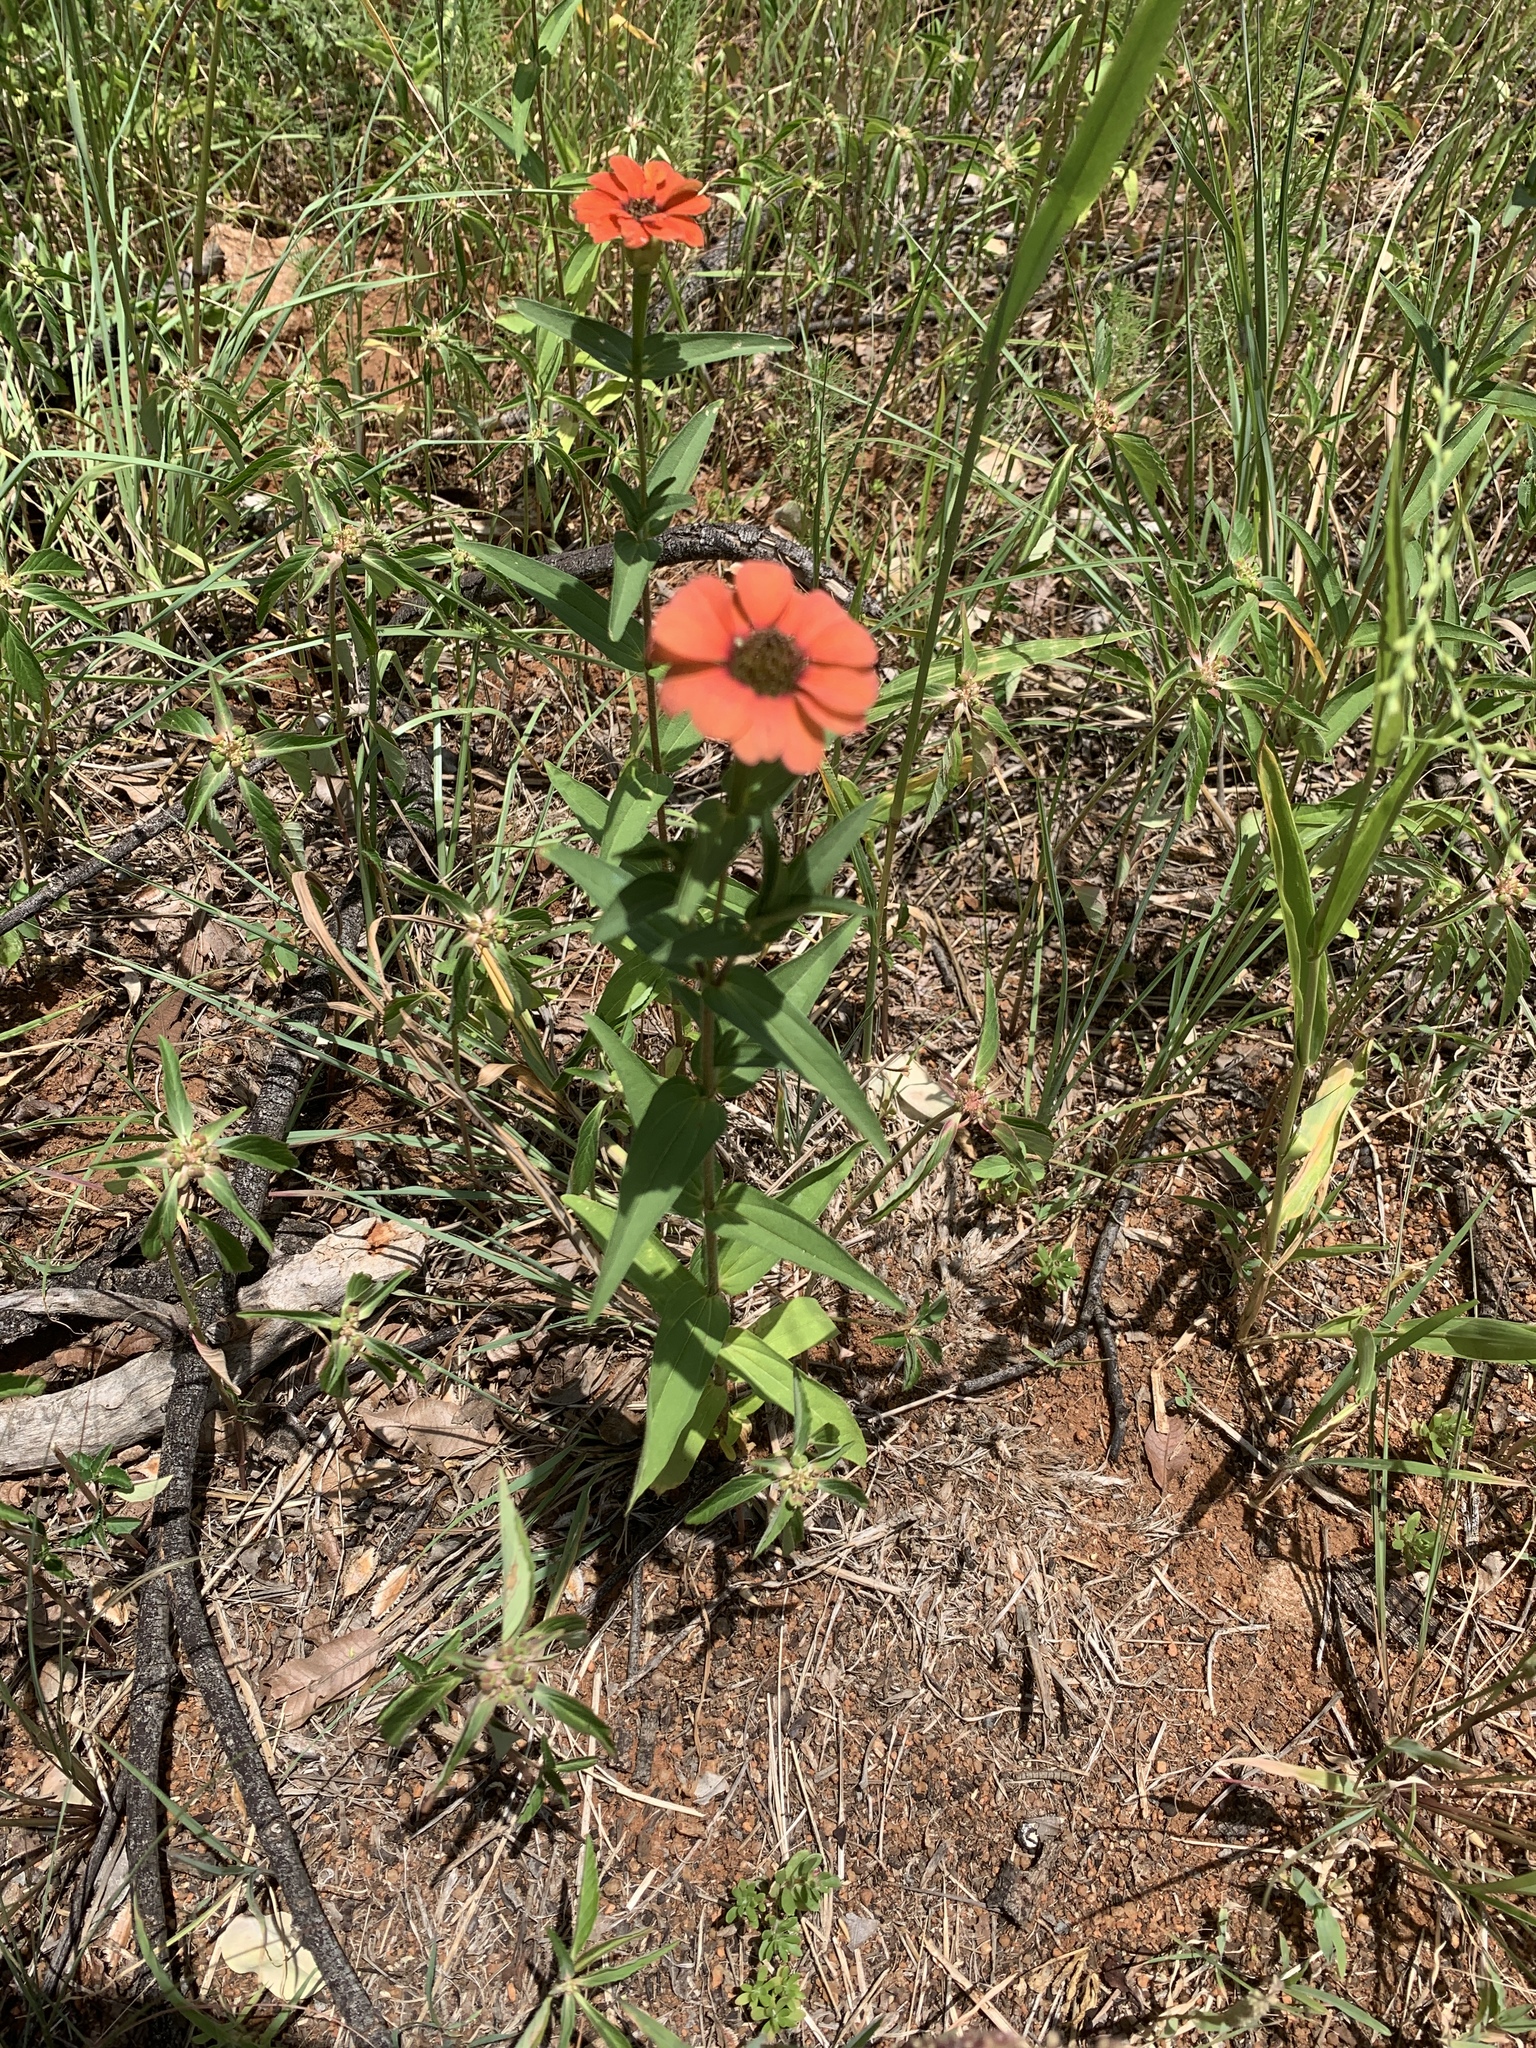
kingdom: Plantae
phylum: Tracheophyta
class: Magnoliopsida
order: Asterales
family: Asteraceae
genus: Zinnia
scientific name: Zinnia peruviana
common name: Peruvian zinnia
